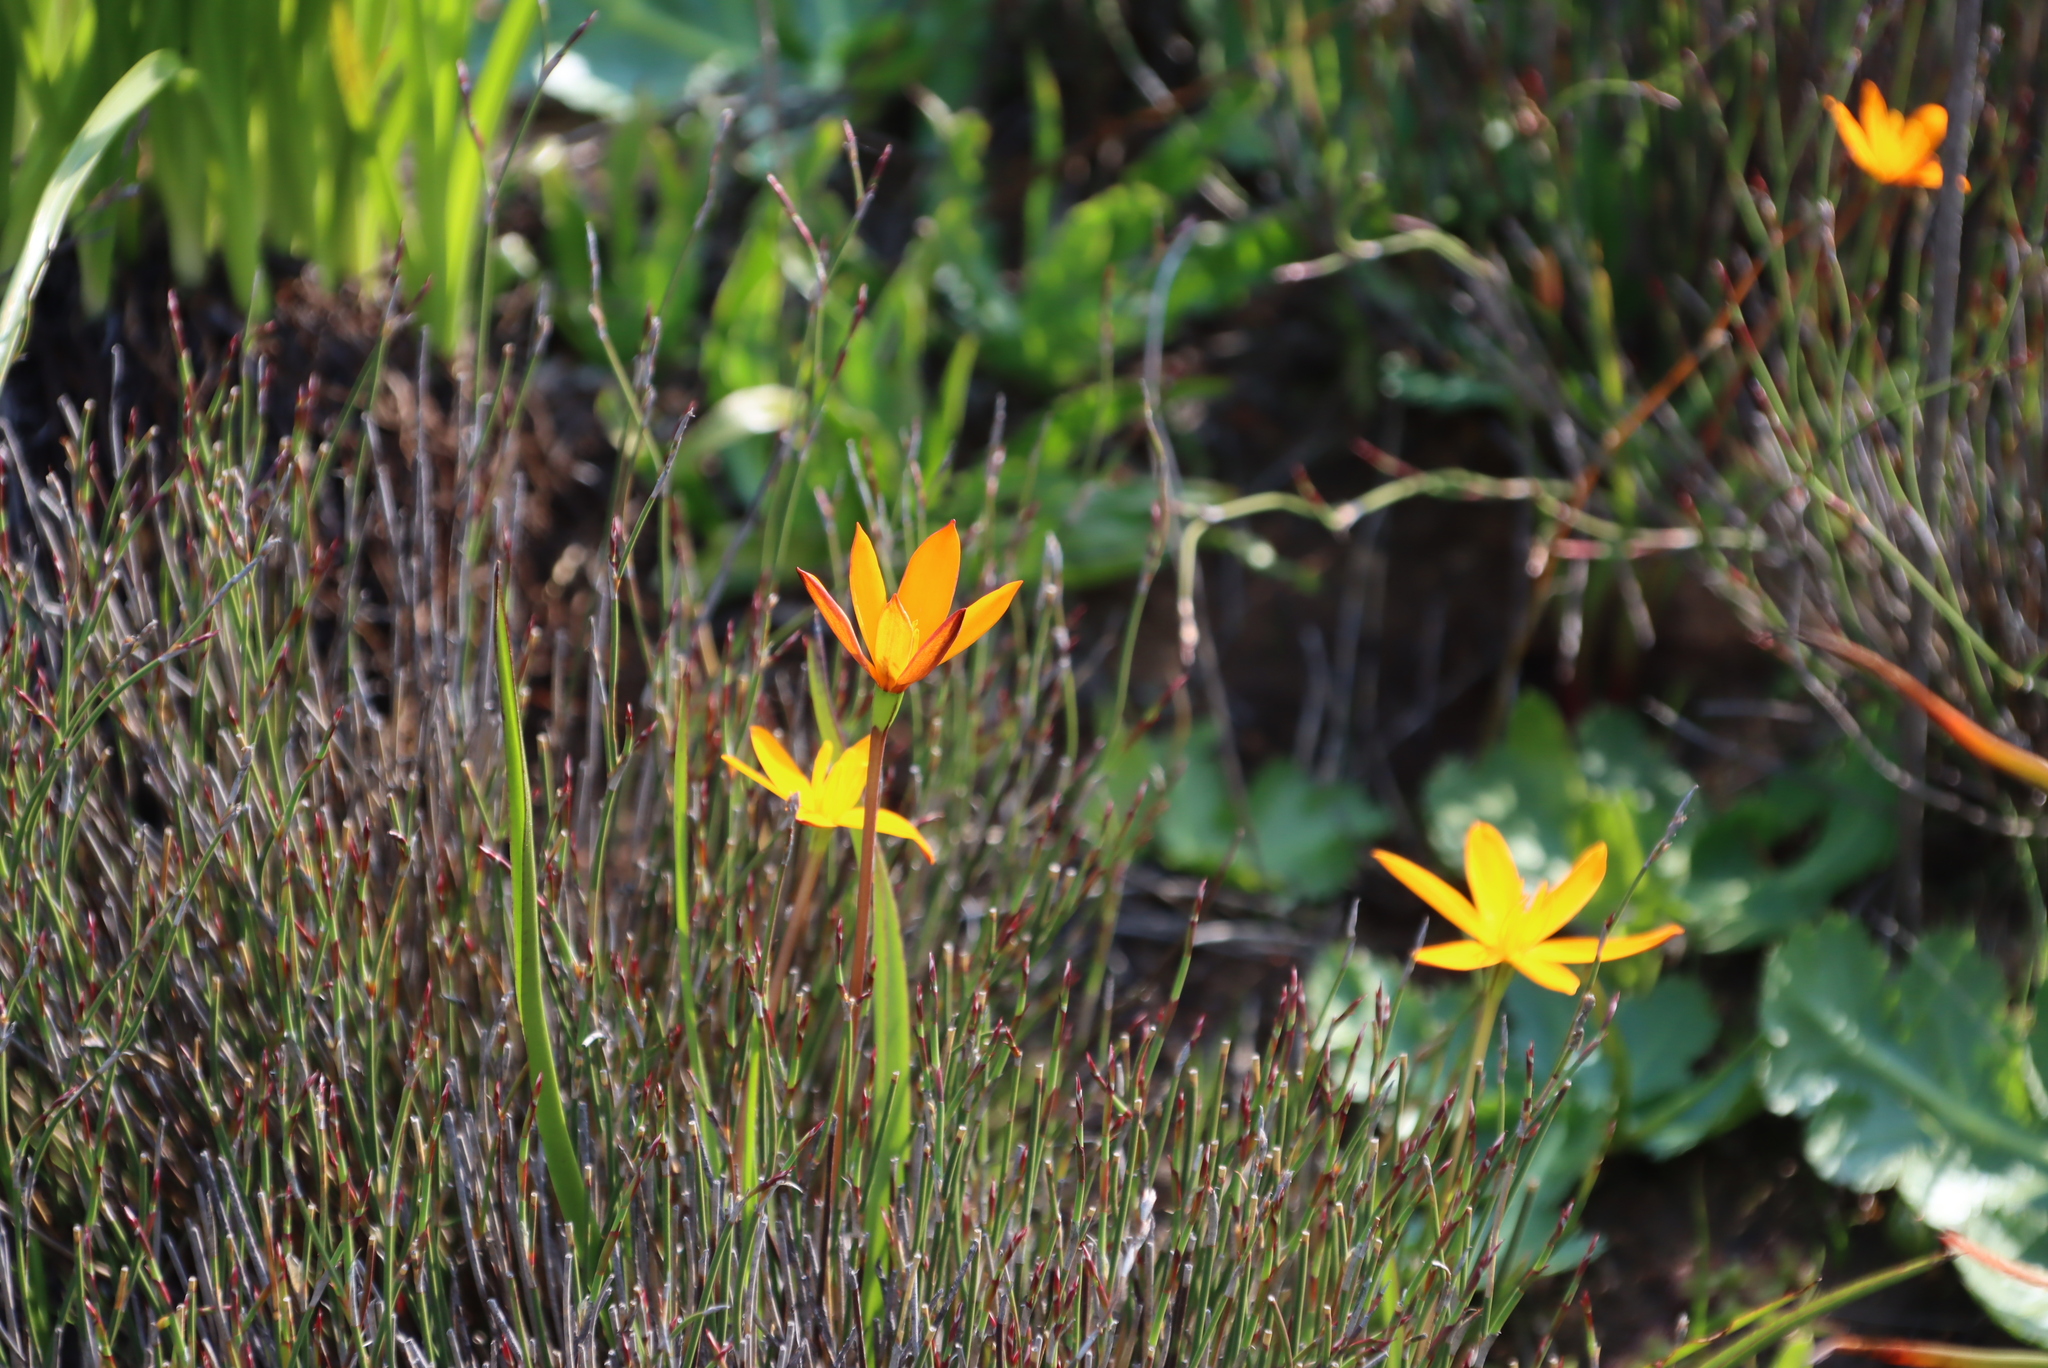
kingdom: Plantae
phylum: Tracheophyta
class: Liliopsida
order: Asparagales
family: Hypoxidaceae
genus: Pauridia
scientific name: Pauridia gracilipes
